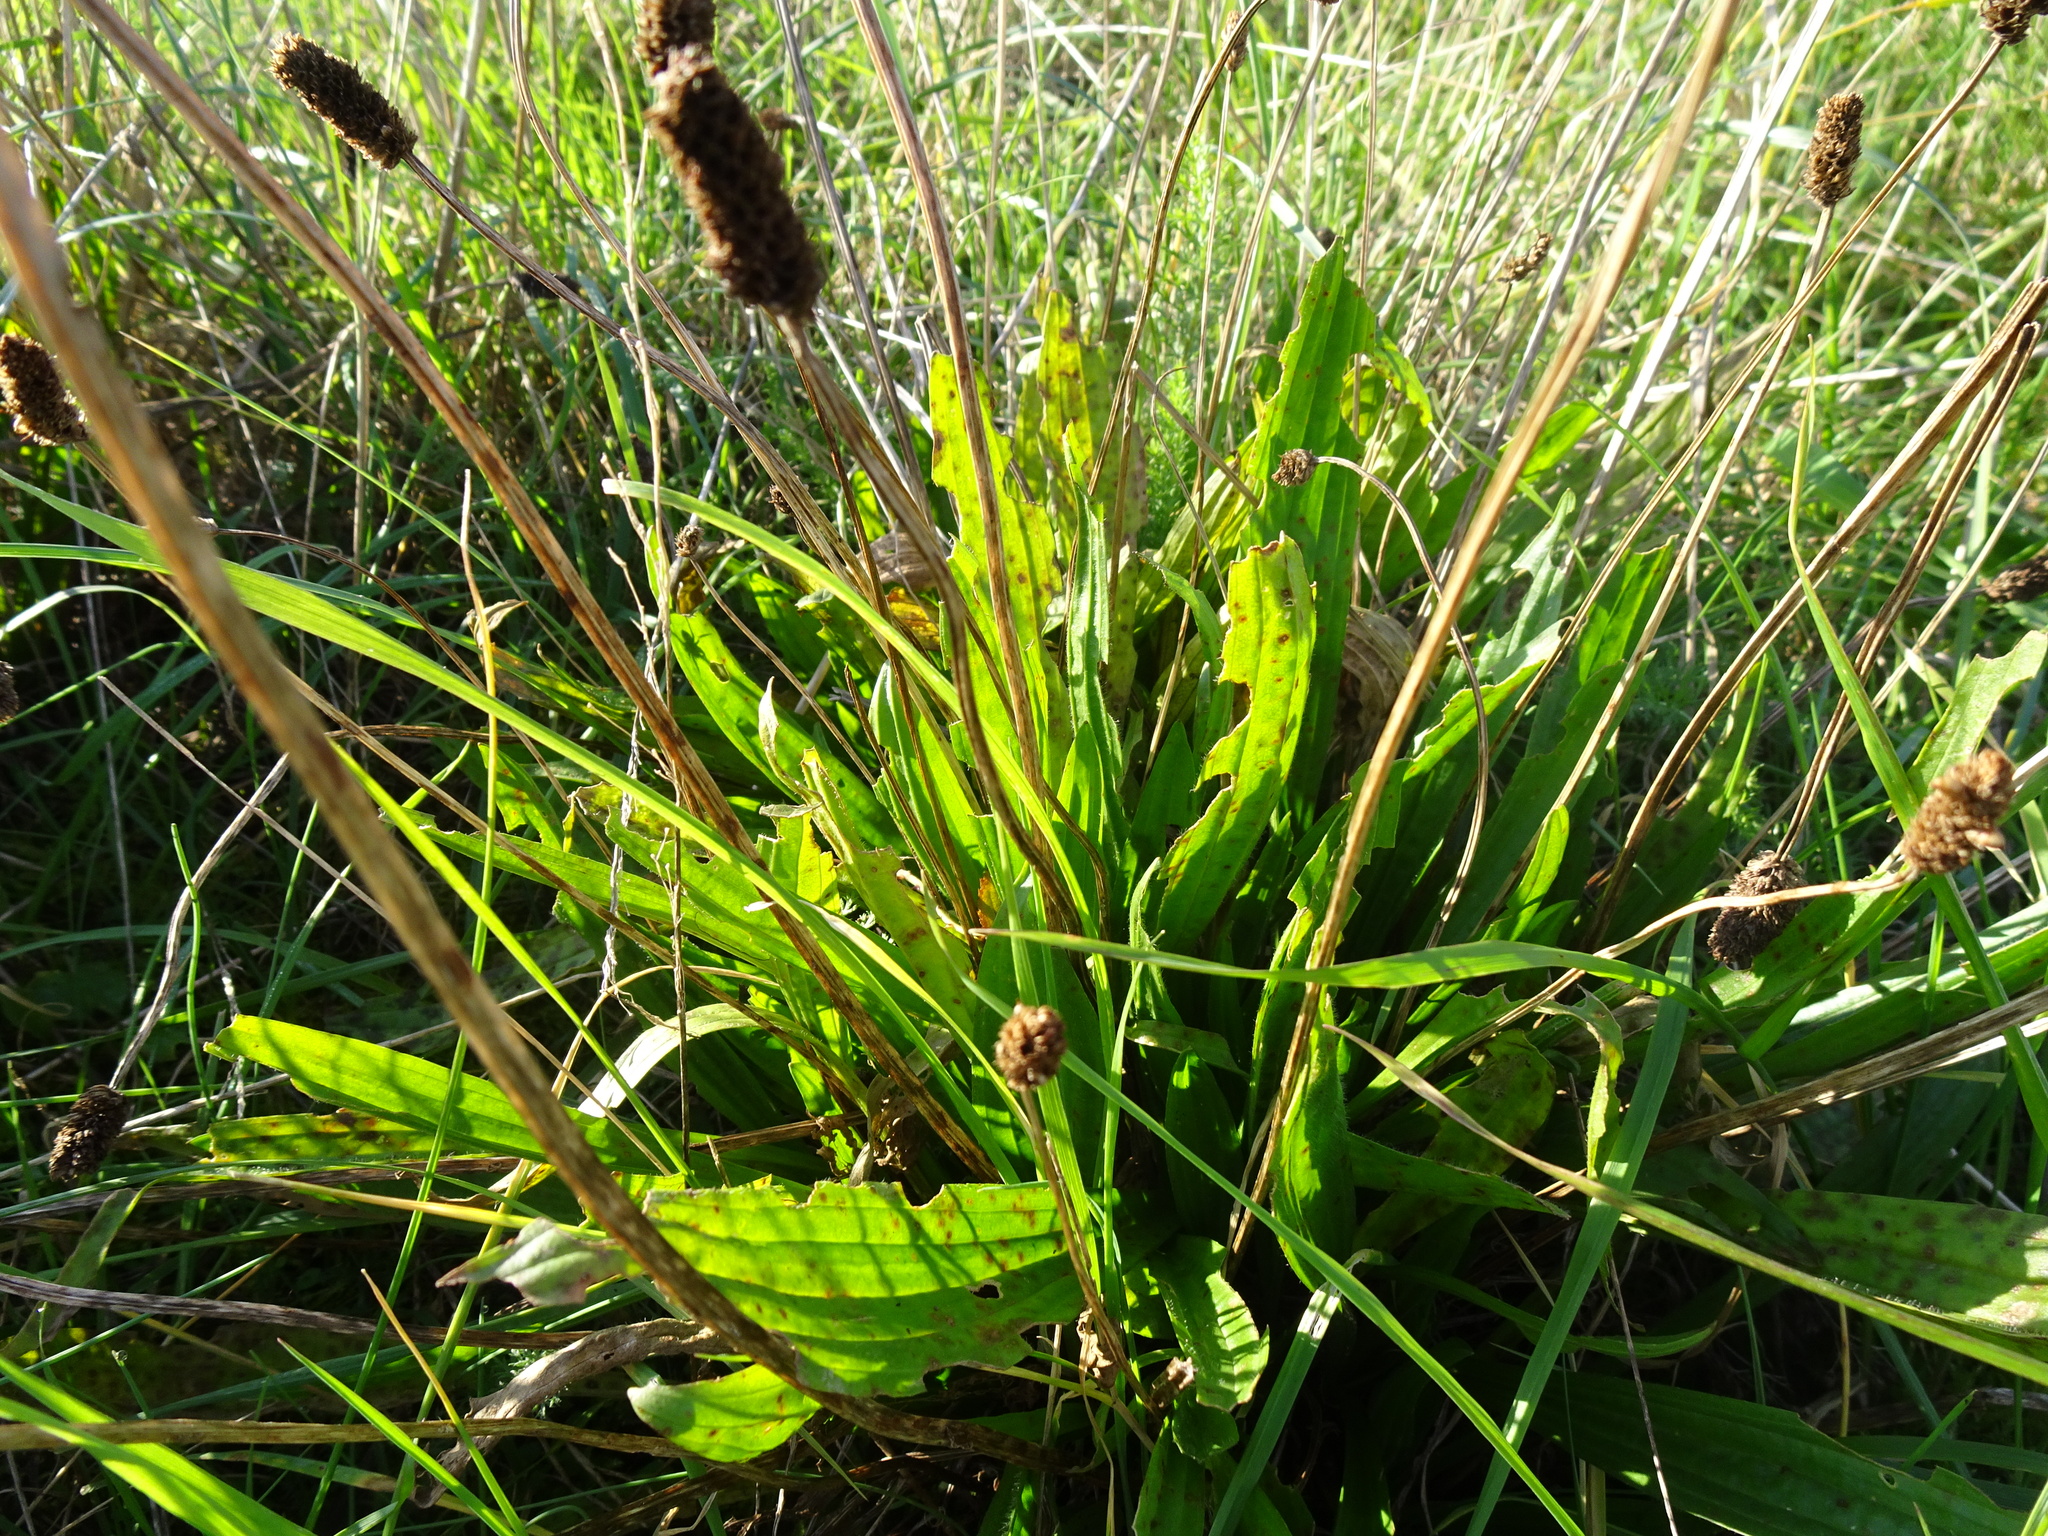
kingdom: Plantae
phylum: Tracheophyta
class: Magnoliopsida
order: Lamiales
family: Plantaginaceae
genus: Plantago
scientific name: Plantago lanceolata
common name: Ribwort plantain
